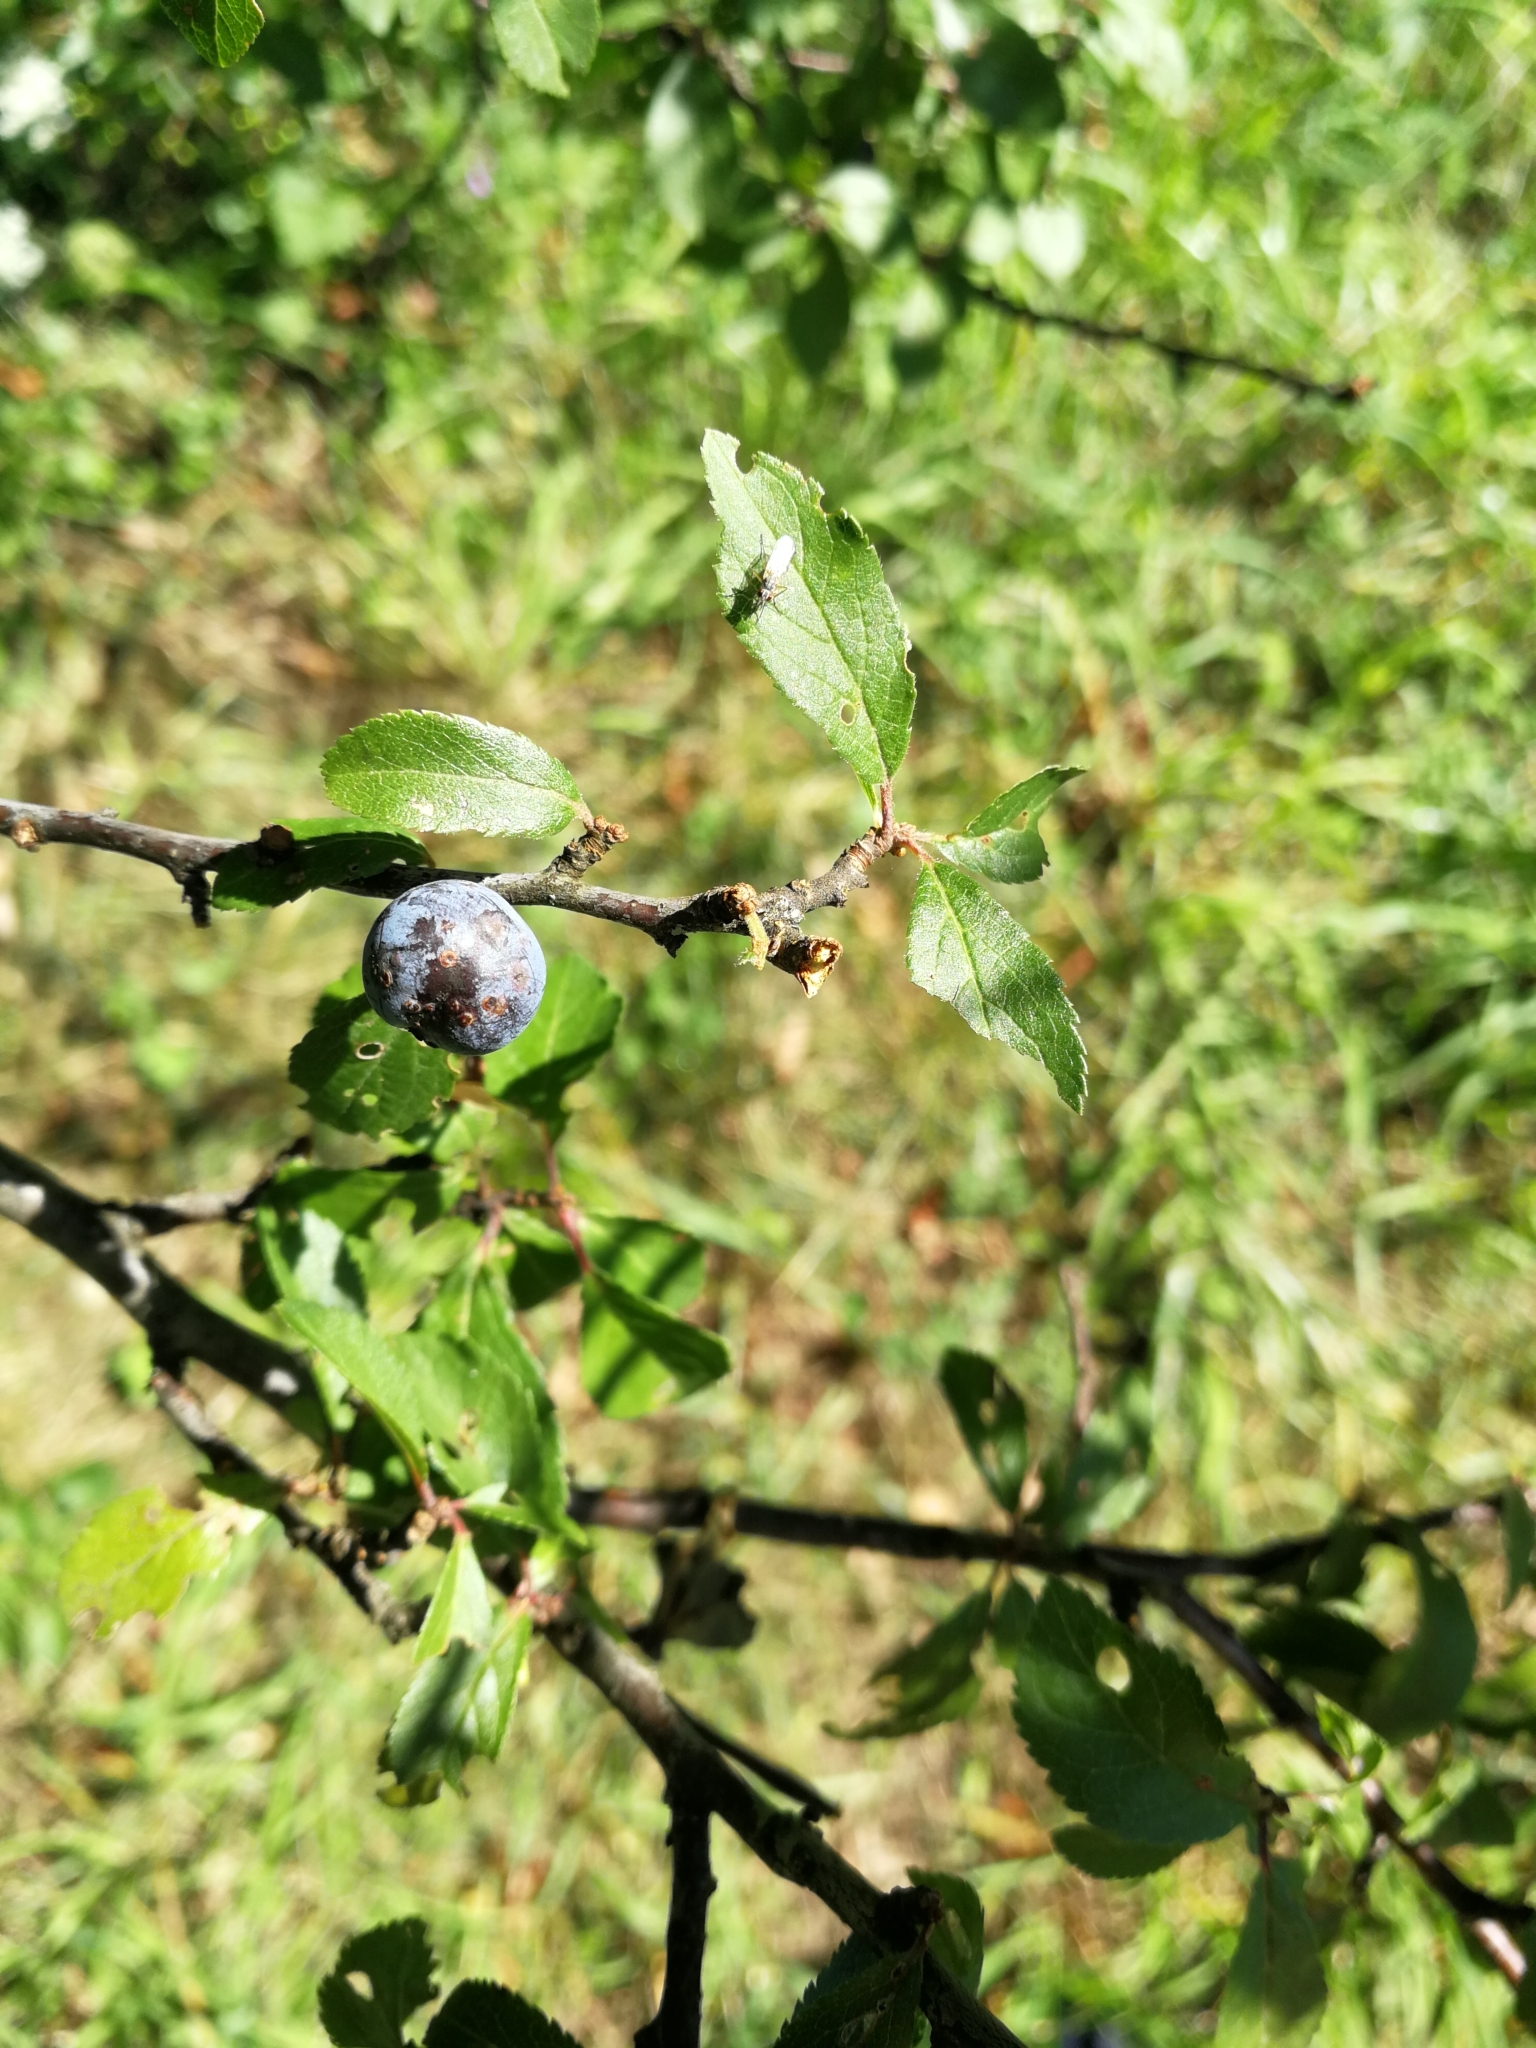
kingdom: Plantae
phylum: Tracheophyta
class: Magnoliopsida
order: Rosales
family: Rosaceae
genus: Prunus
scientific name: Prunus spinosa
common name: Blackthorn
